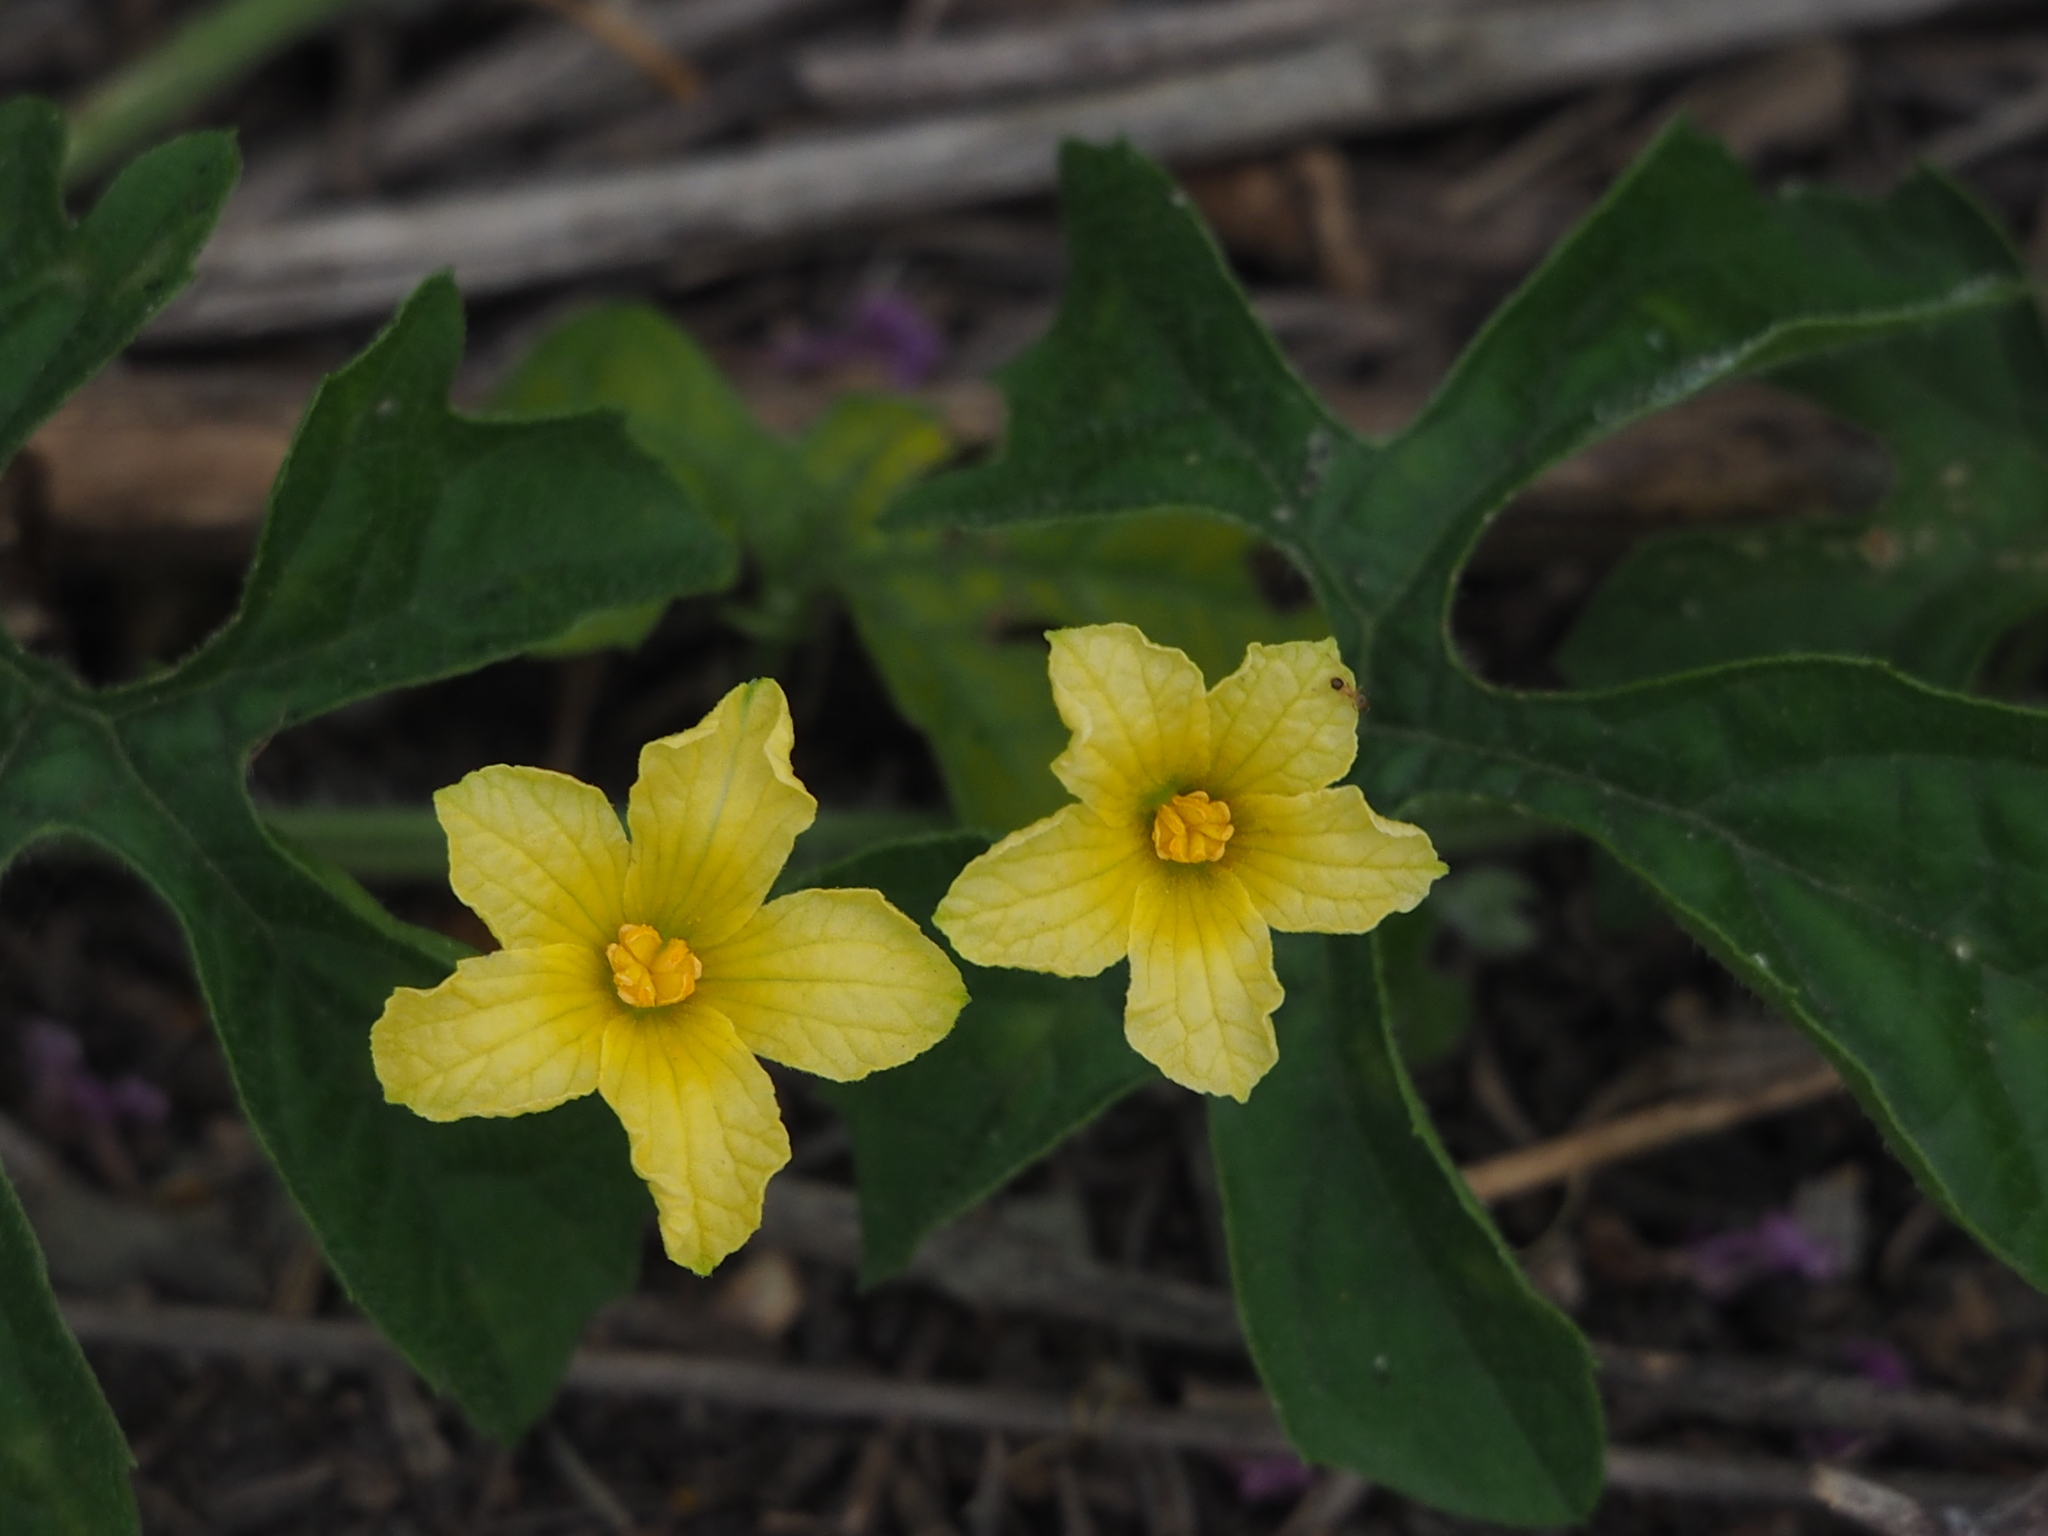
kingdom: Plantae
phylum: Tracheophyta
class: Magnoliopsida
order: Cucurbitales
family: Cucurbitaceae
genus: Momordica
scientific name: Momordica charantia
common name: Balsampear
